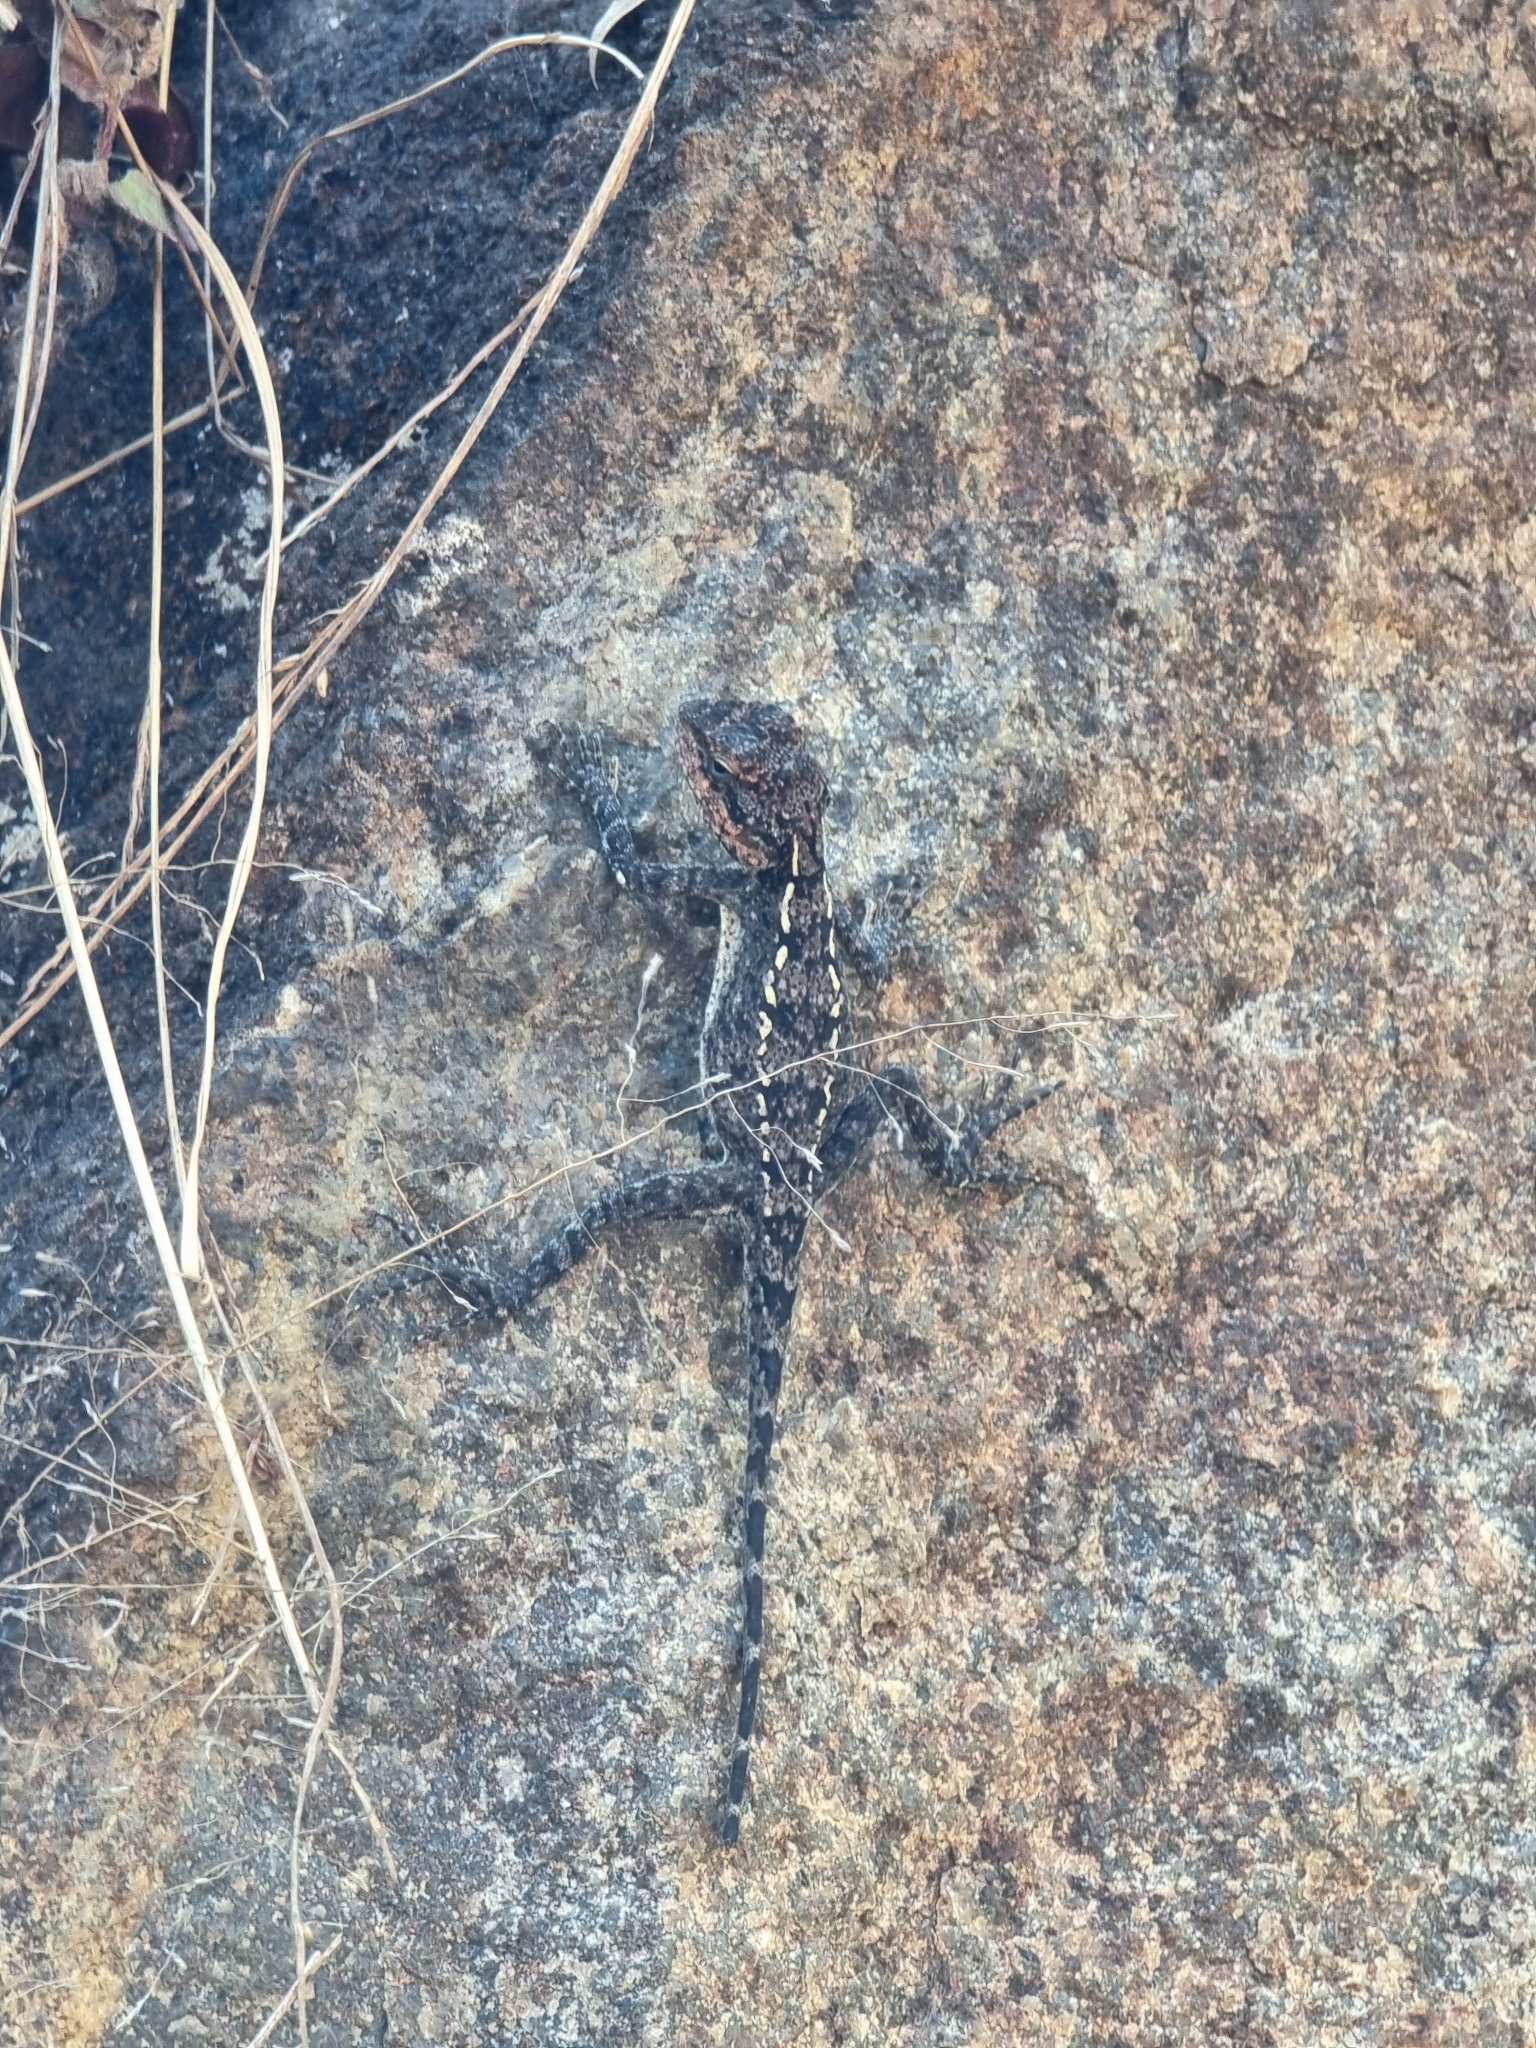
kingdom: Animalia
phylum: Chordata
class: Squamata
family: Agamidae
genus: Psammophilus
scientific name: Psammophilus dorsalis
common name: South indian rock agama
